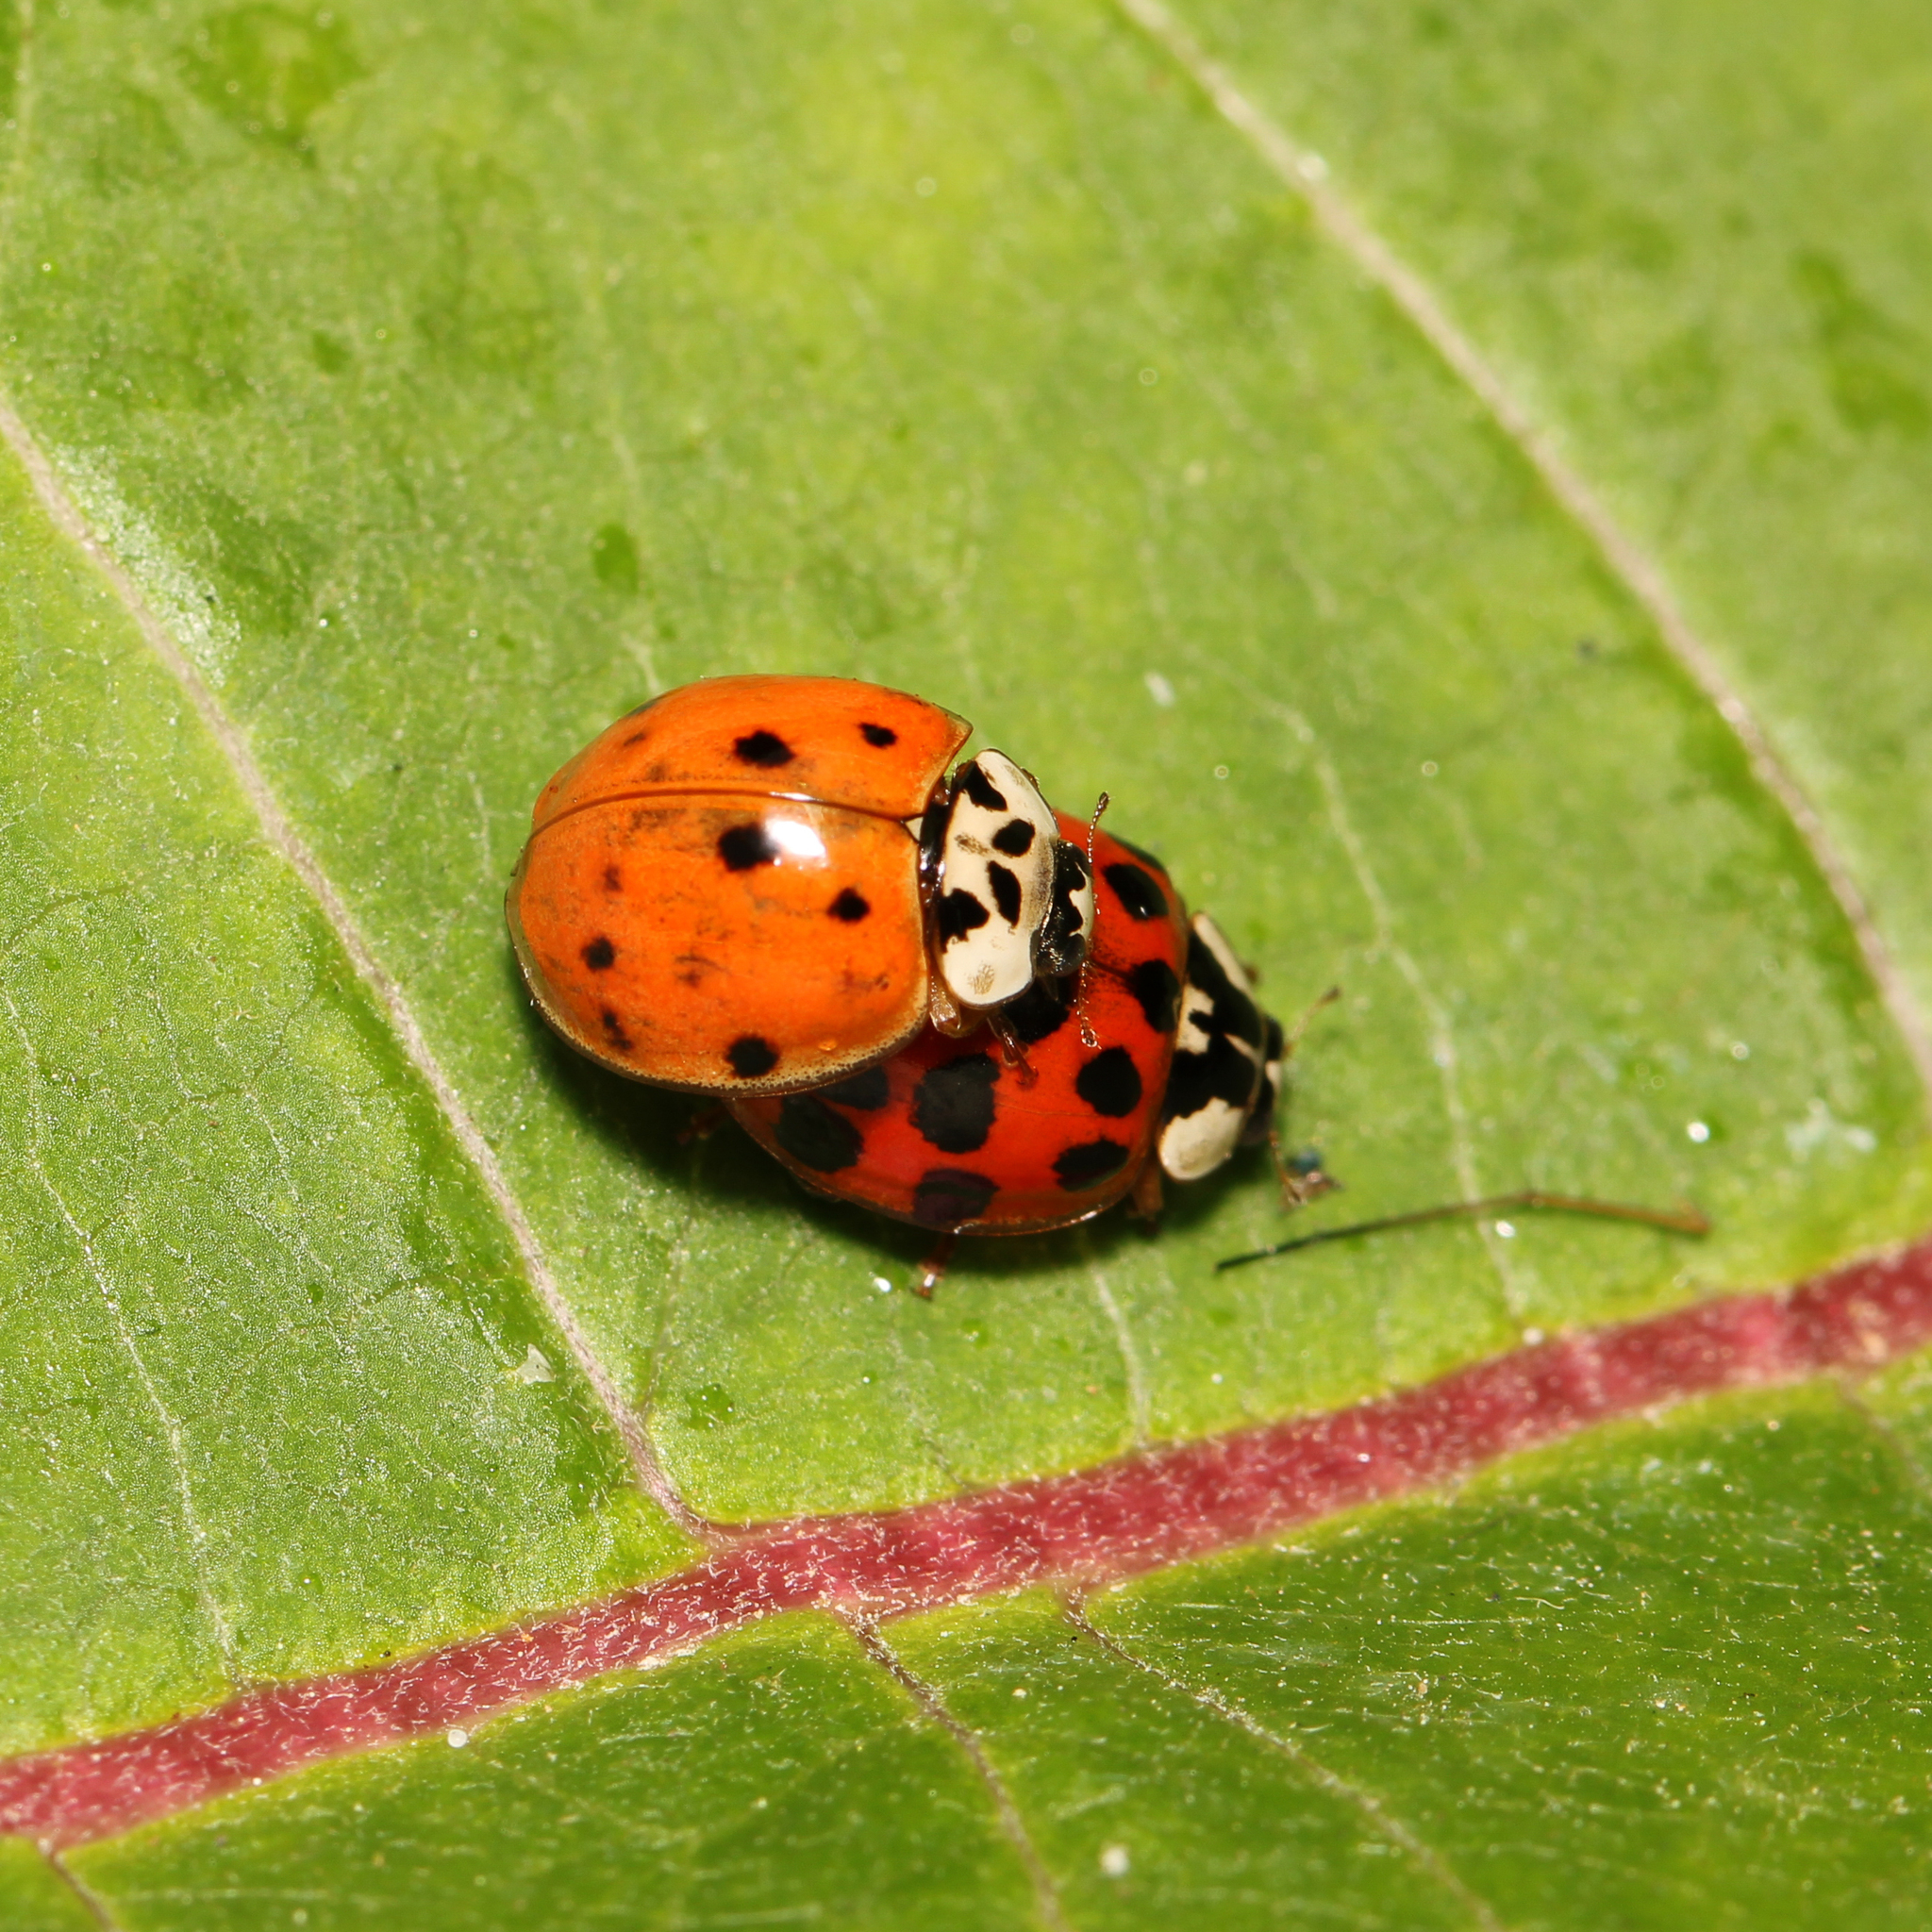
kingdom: Animalia
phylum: Arthropoda
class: Insecta
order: Coleoptera
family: Coccinellidae
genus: Harmonia
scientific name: Harmonia axyridis
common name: Harlequin ladybird
